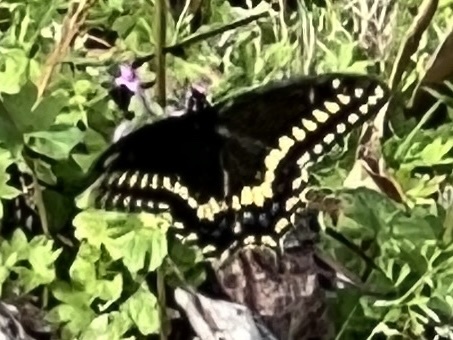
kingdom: Animalia
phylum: Arthropoda
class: Insecta
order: Lepidoptera
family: Papilionidae
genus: Papilio
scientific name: Papilio polyxenes
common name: Black swallowtail
